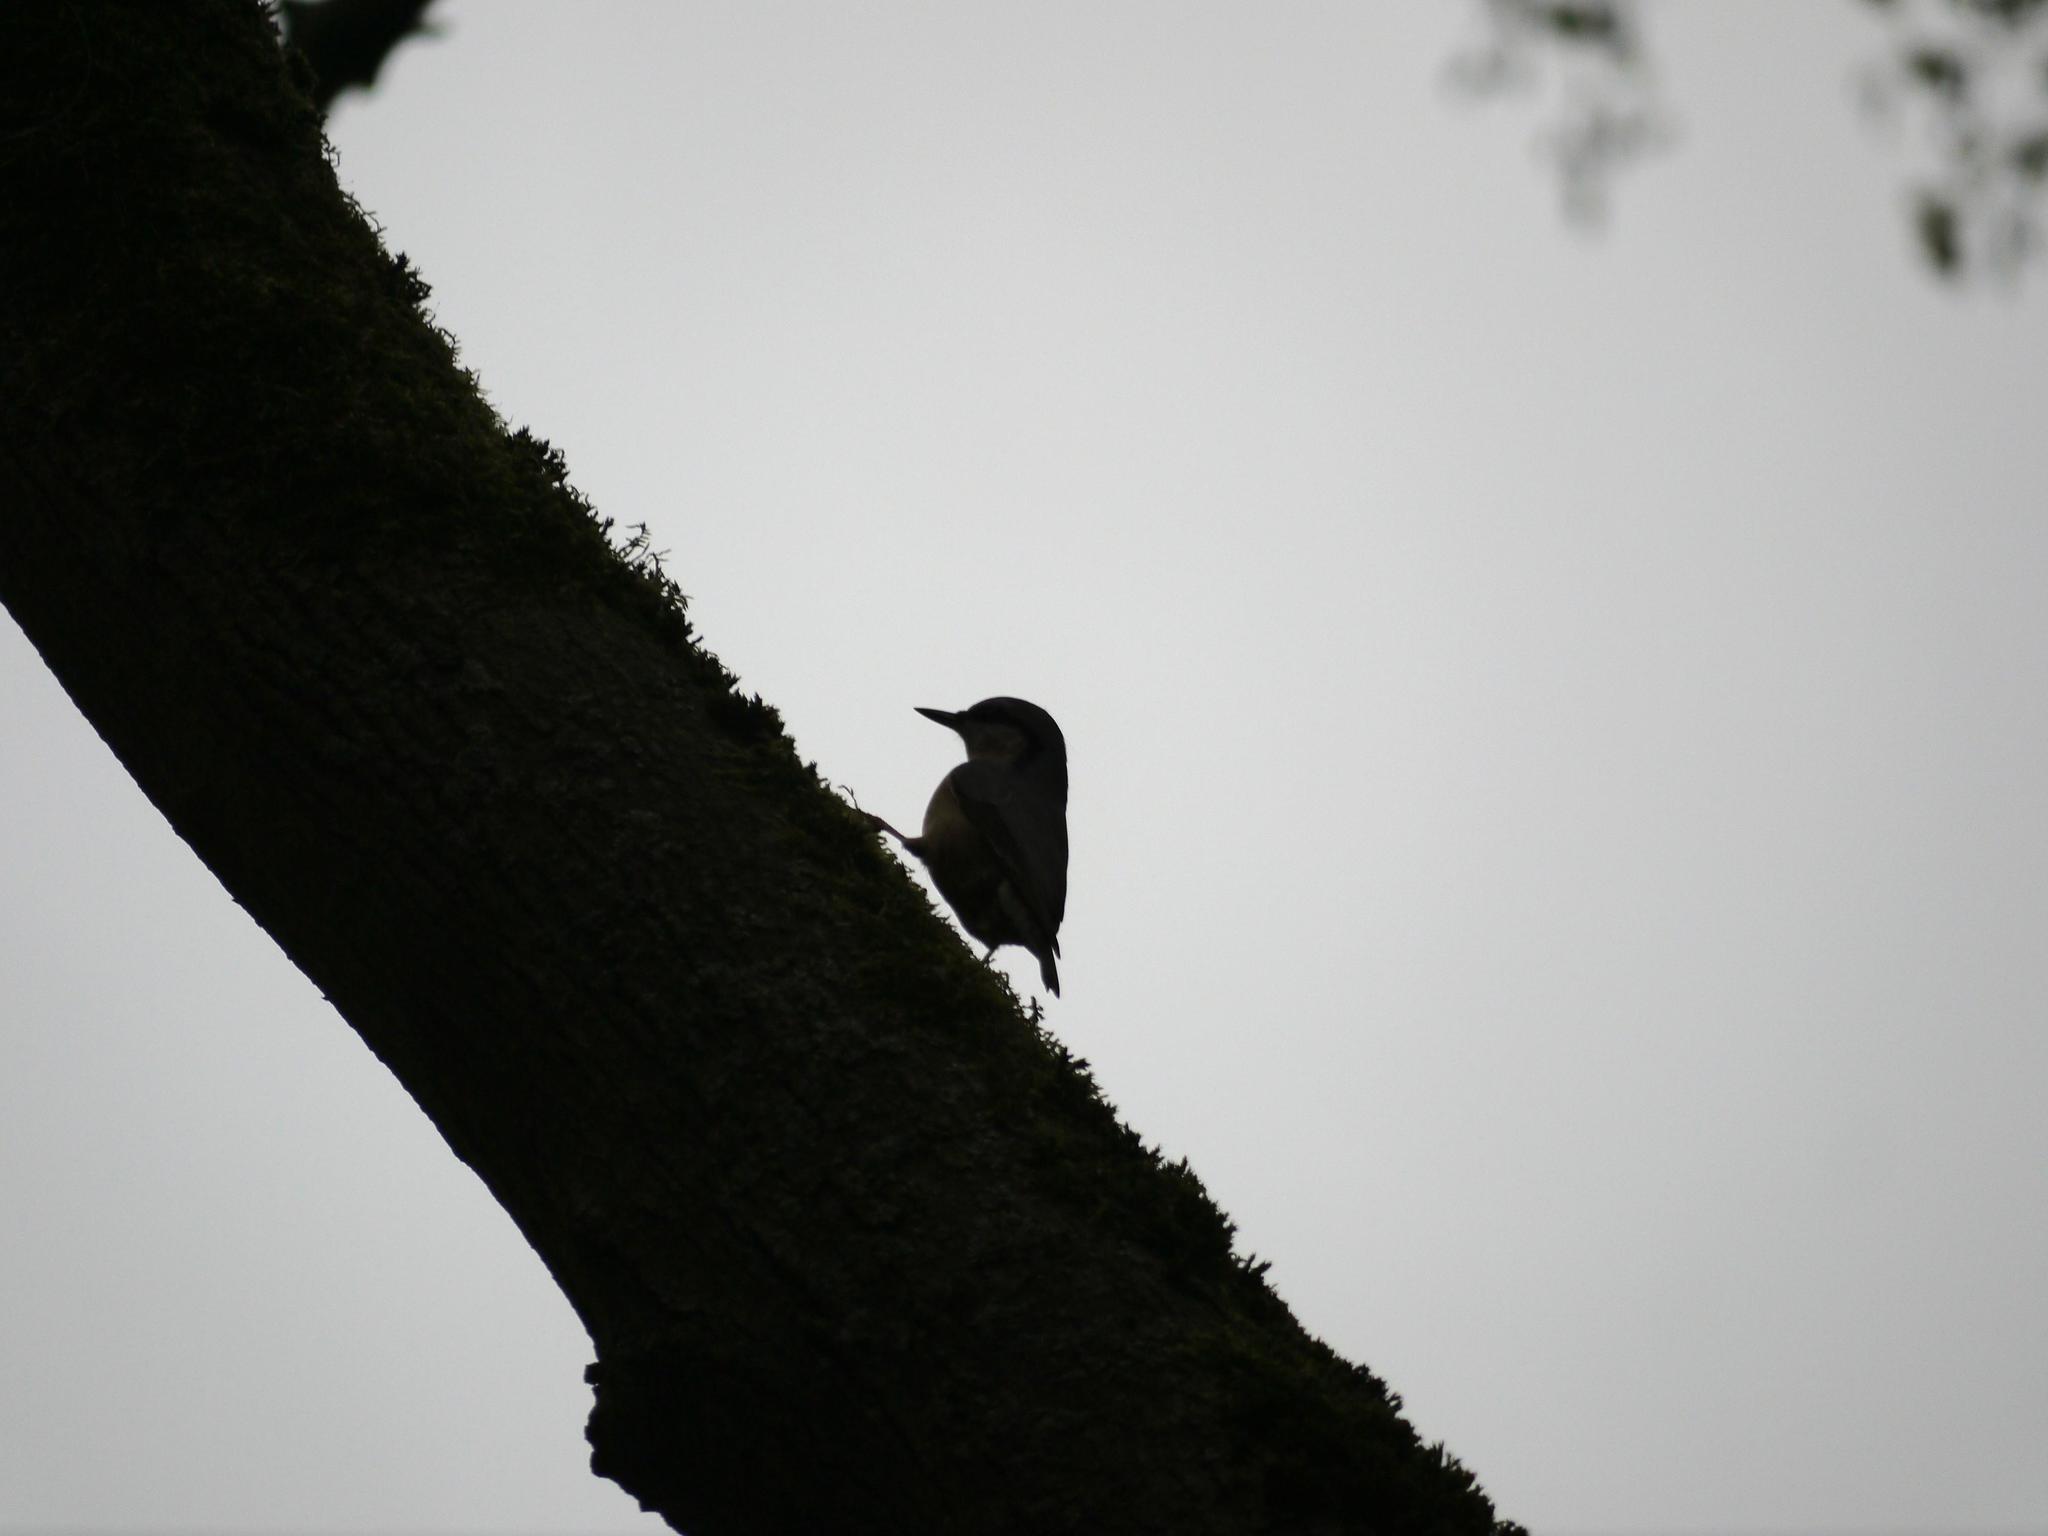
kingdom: Animalia
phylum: Chordata
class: Aves
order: Passeriformes
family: Sittidae
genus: Sitta
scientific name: Sitta europaea
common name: Eurasian nuthatch
